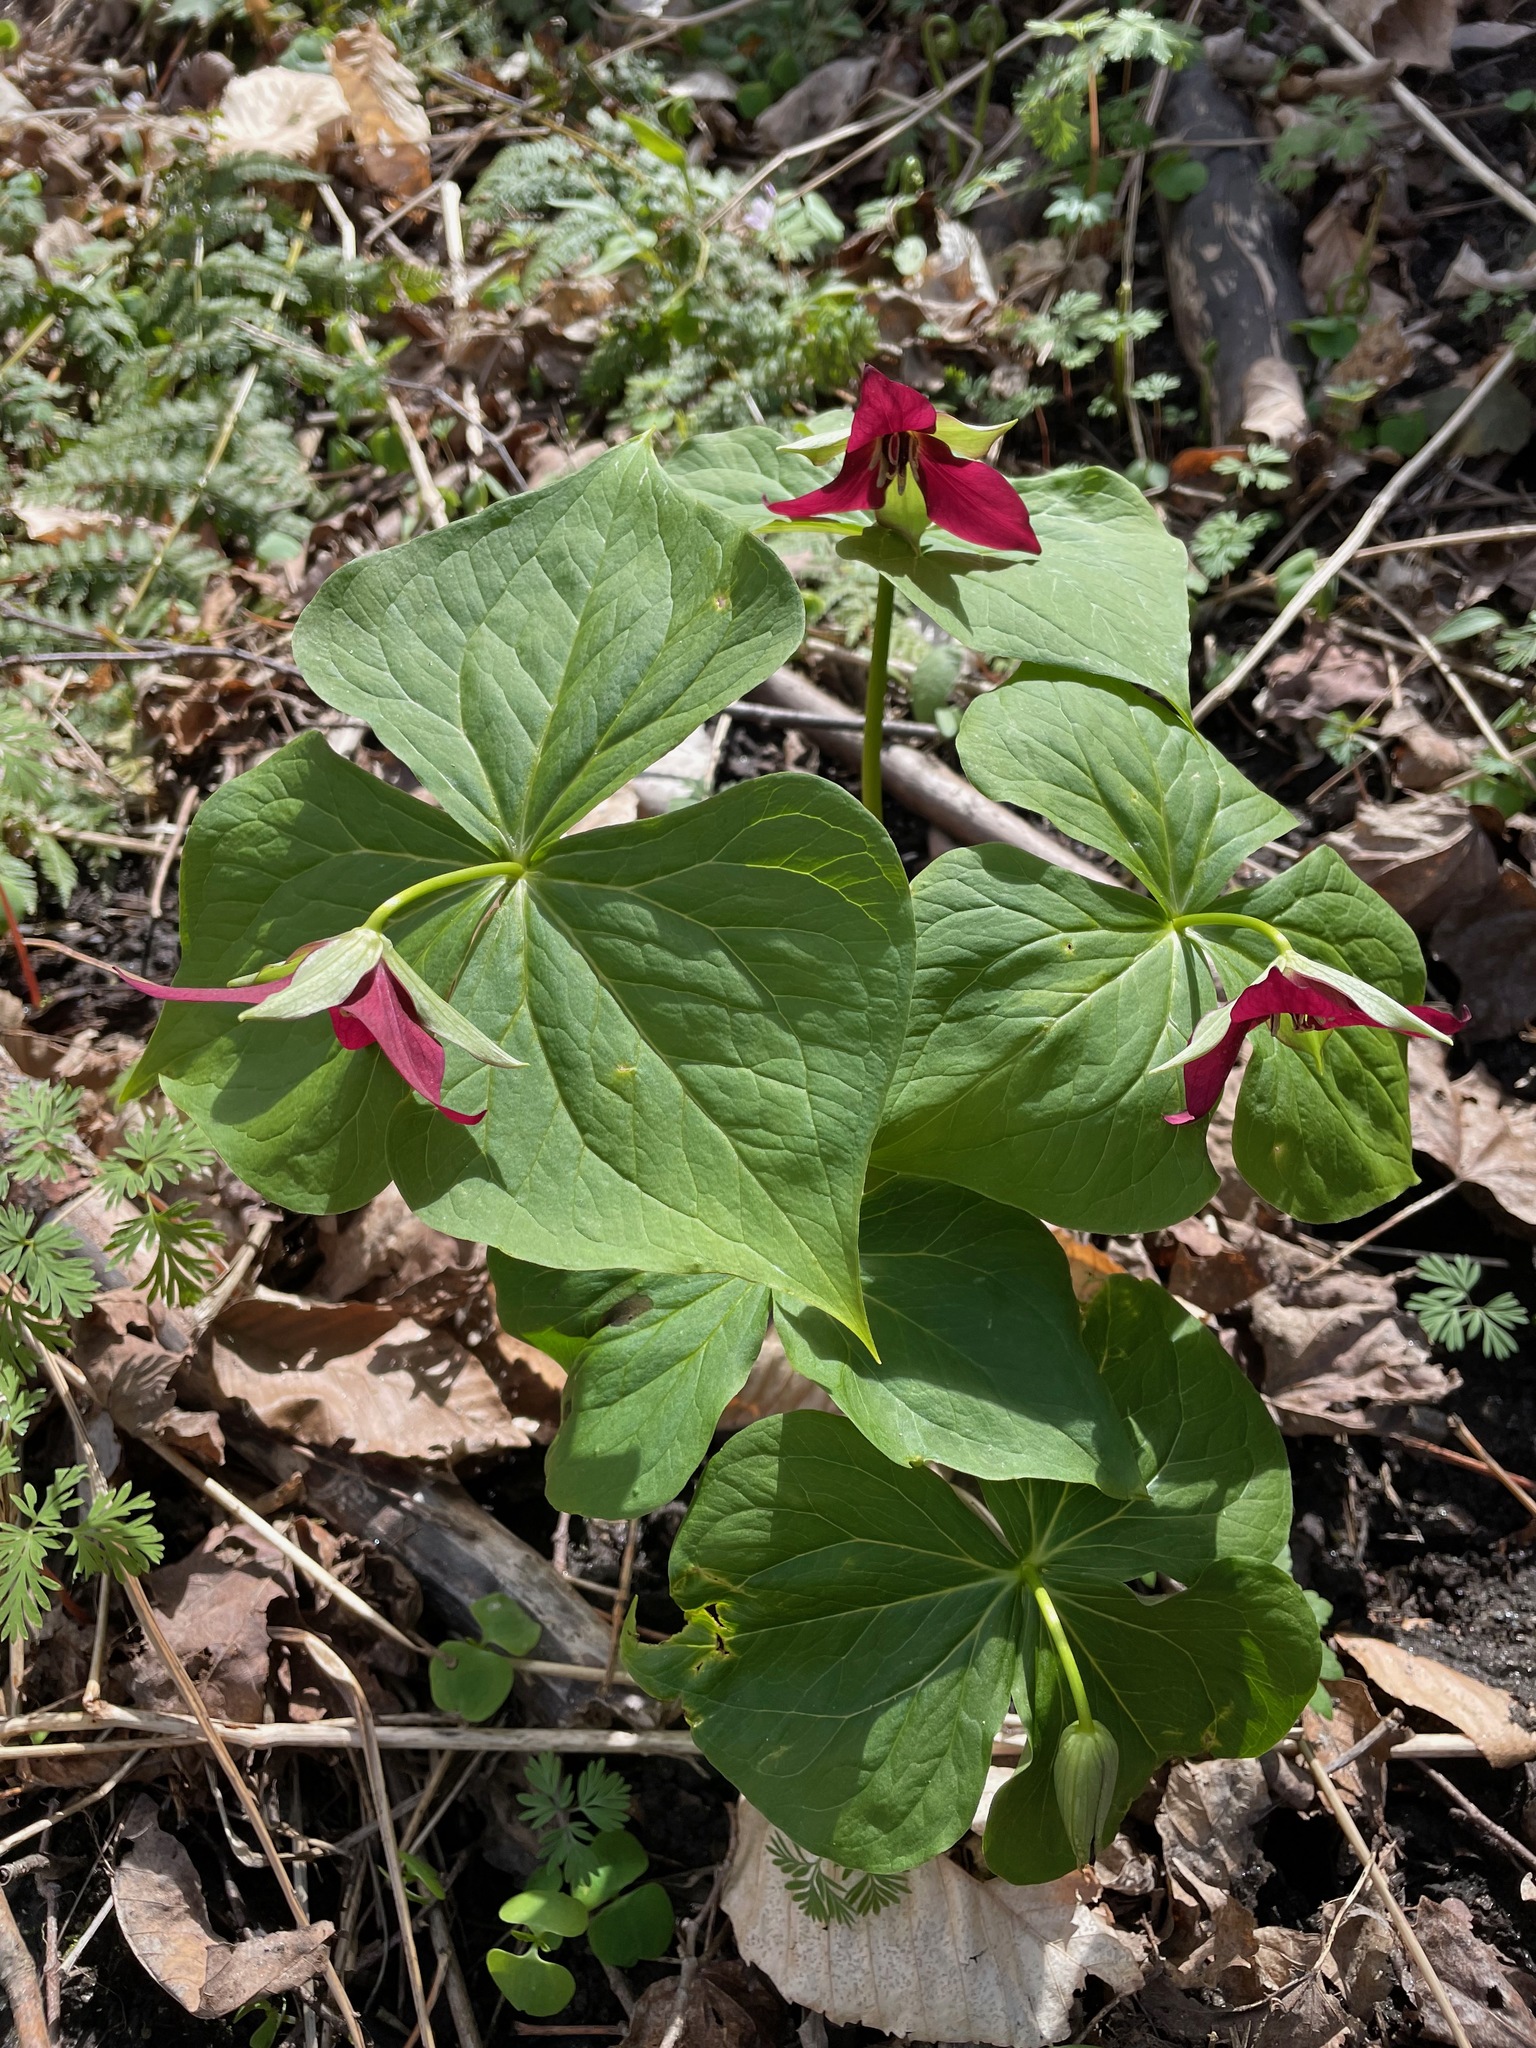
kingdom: Plantae
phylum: Tracheophyta
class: Liliopsida
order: Liliales
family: Melanthiaceae
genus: Trillium
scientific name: Trillium erectum
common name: Purple trillium
